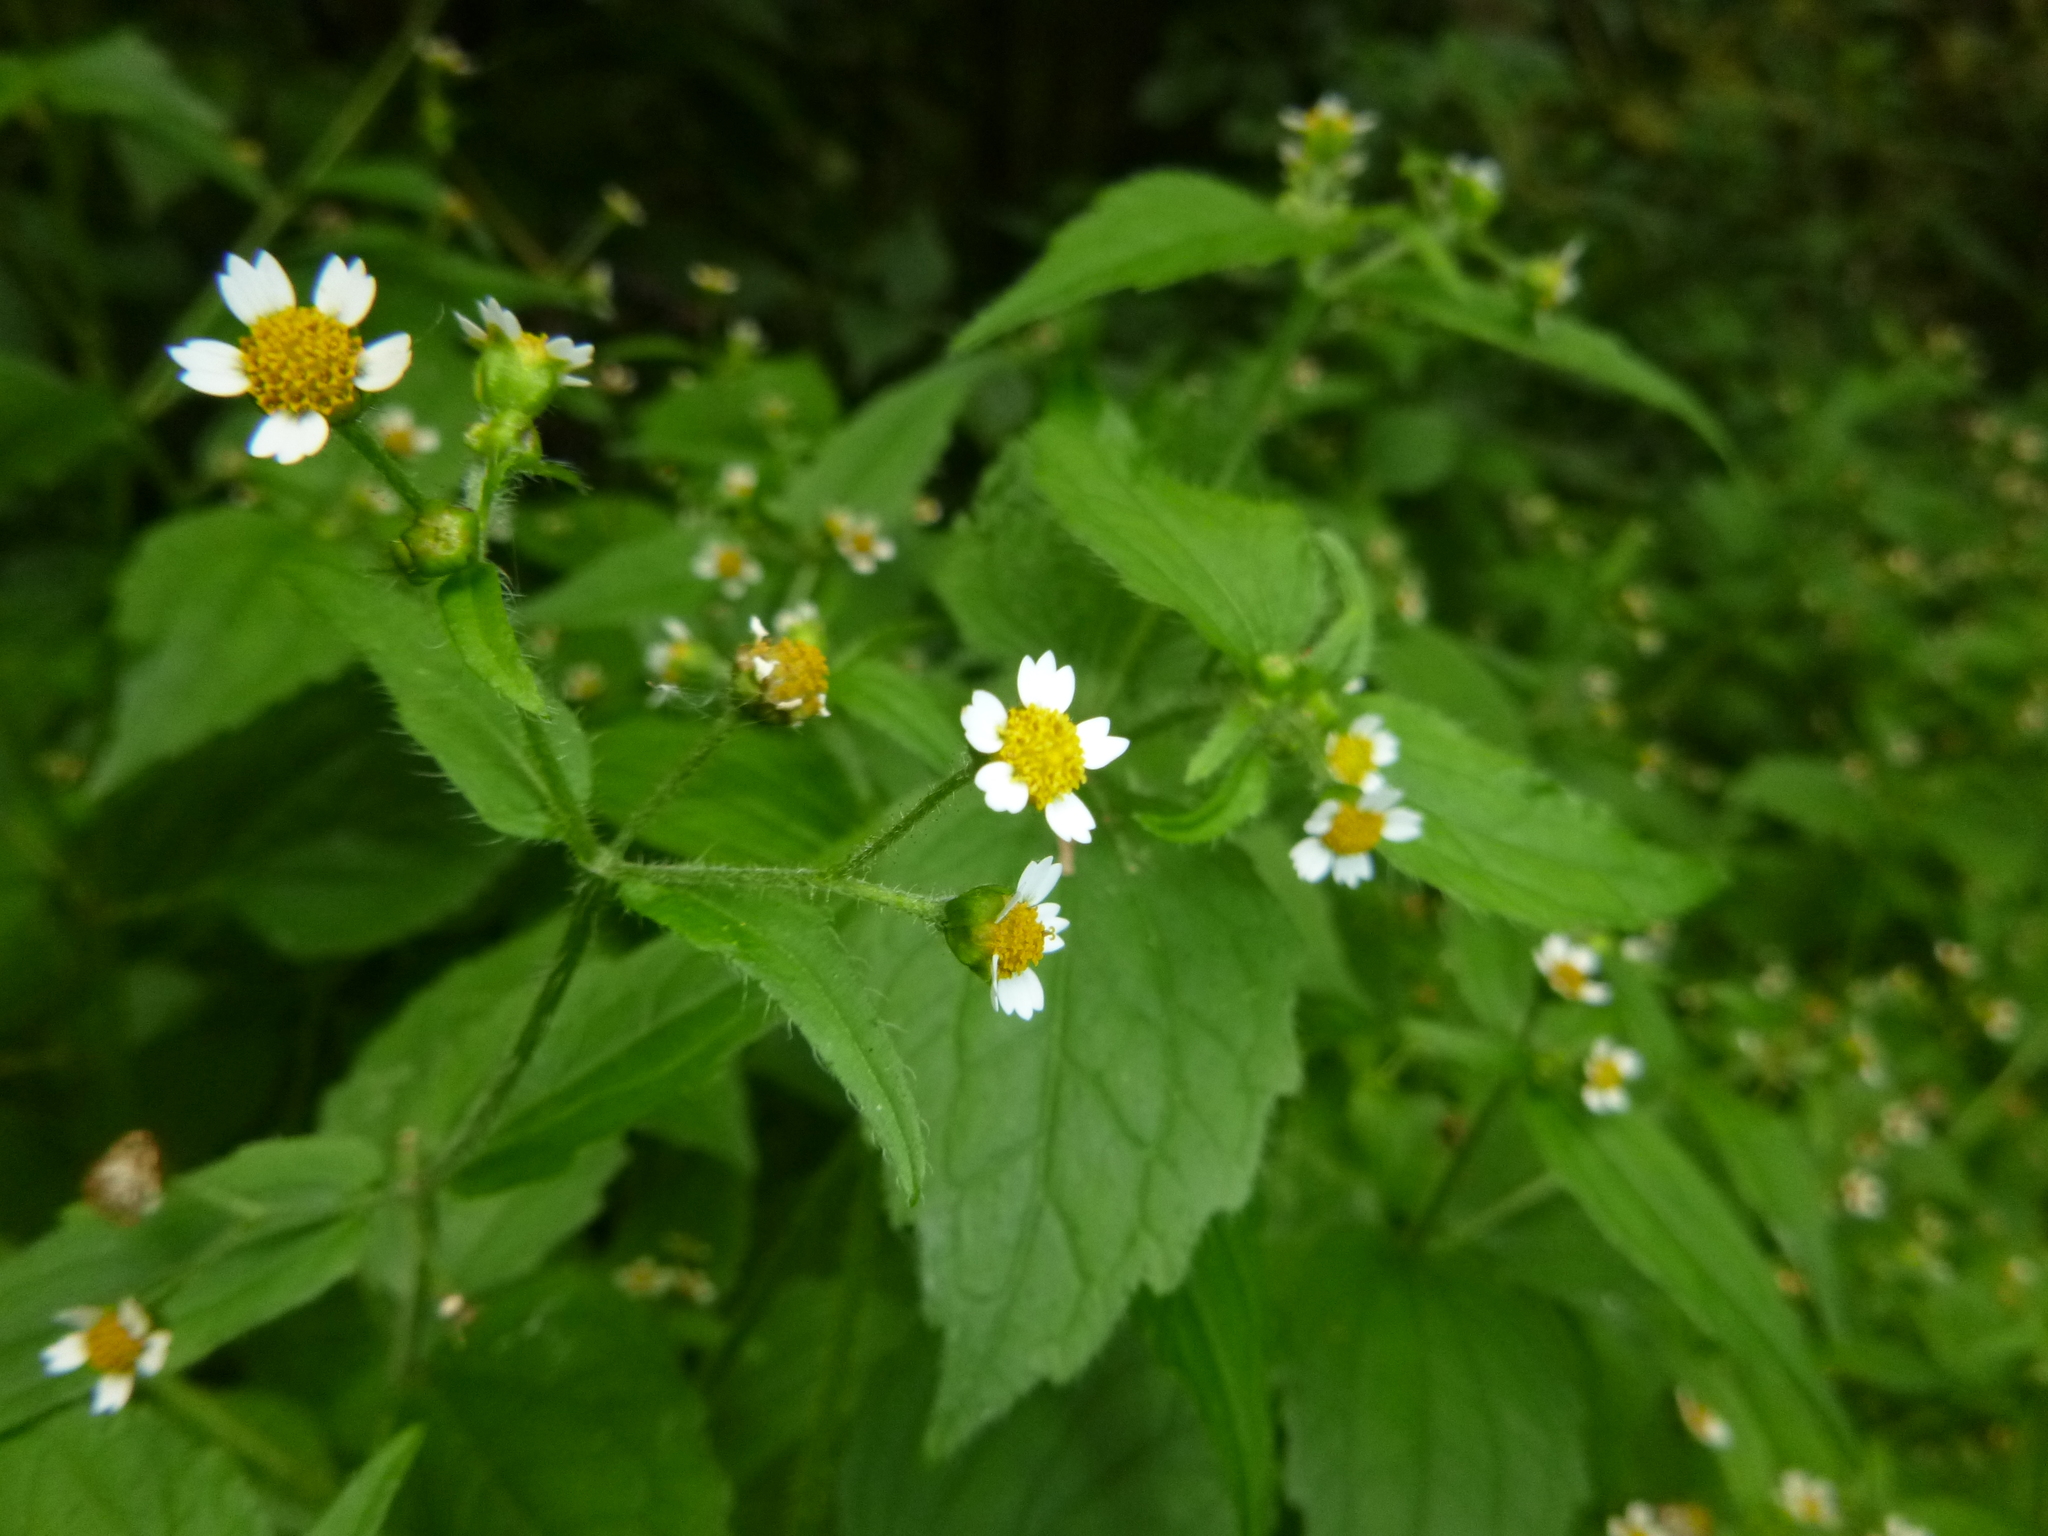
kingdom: Plantae
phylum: Tracheophyta
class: Magnoliopsida
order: Asterales
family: Asteraceae
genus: Galinsoga
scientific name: Galinsoga quadriradiata
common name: Shaggy soldier
